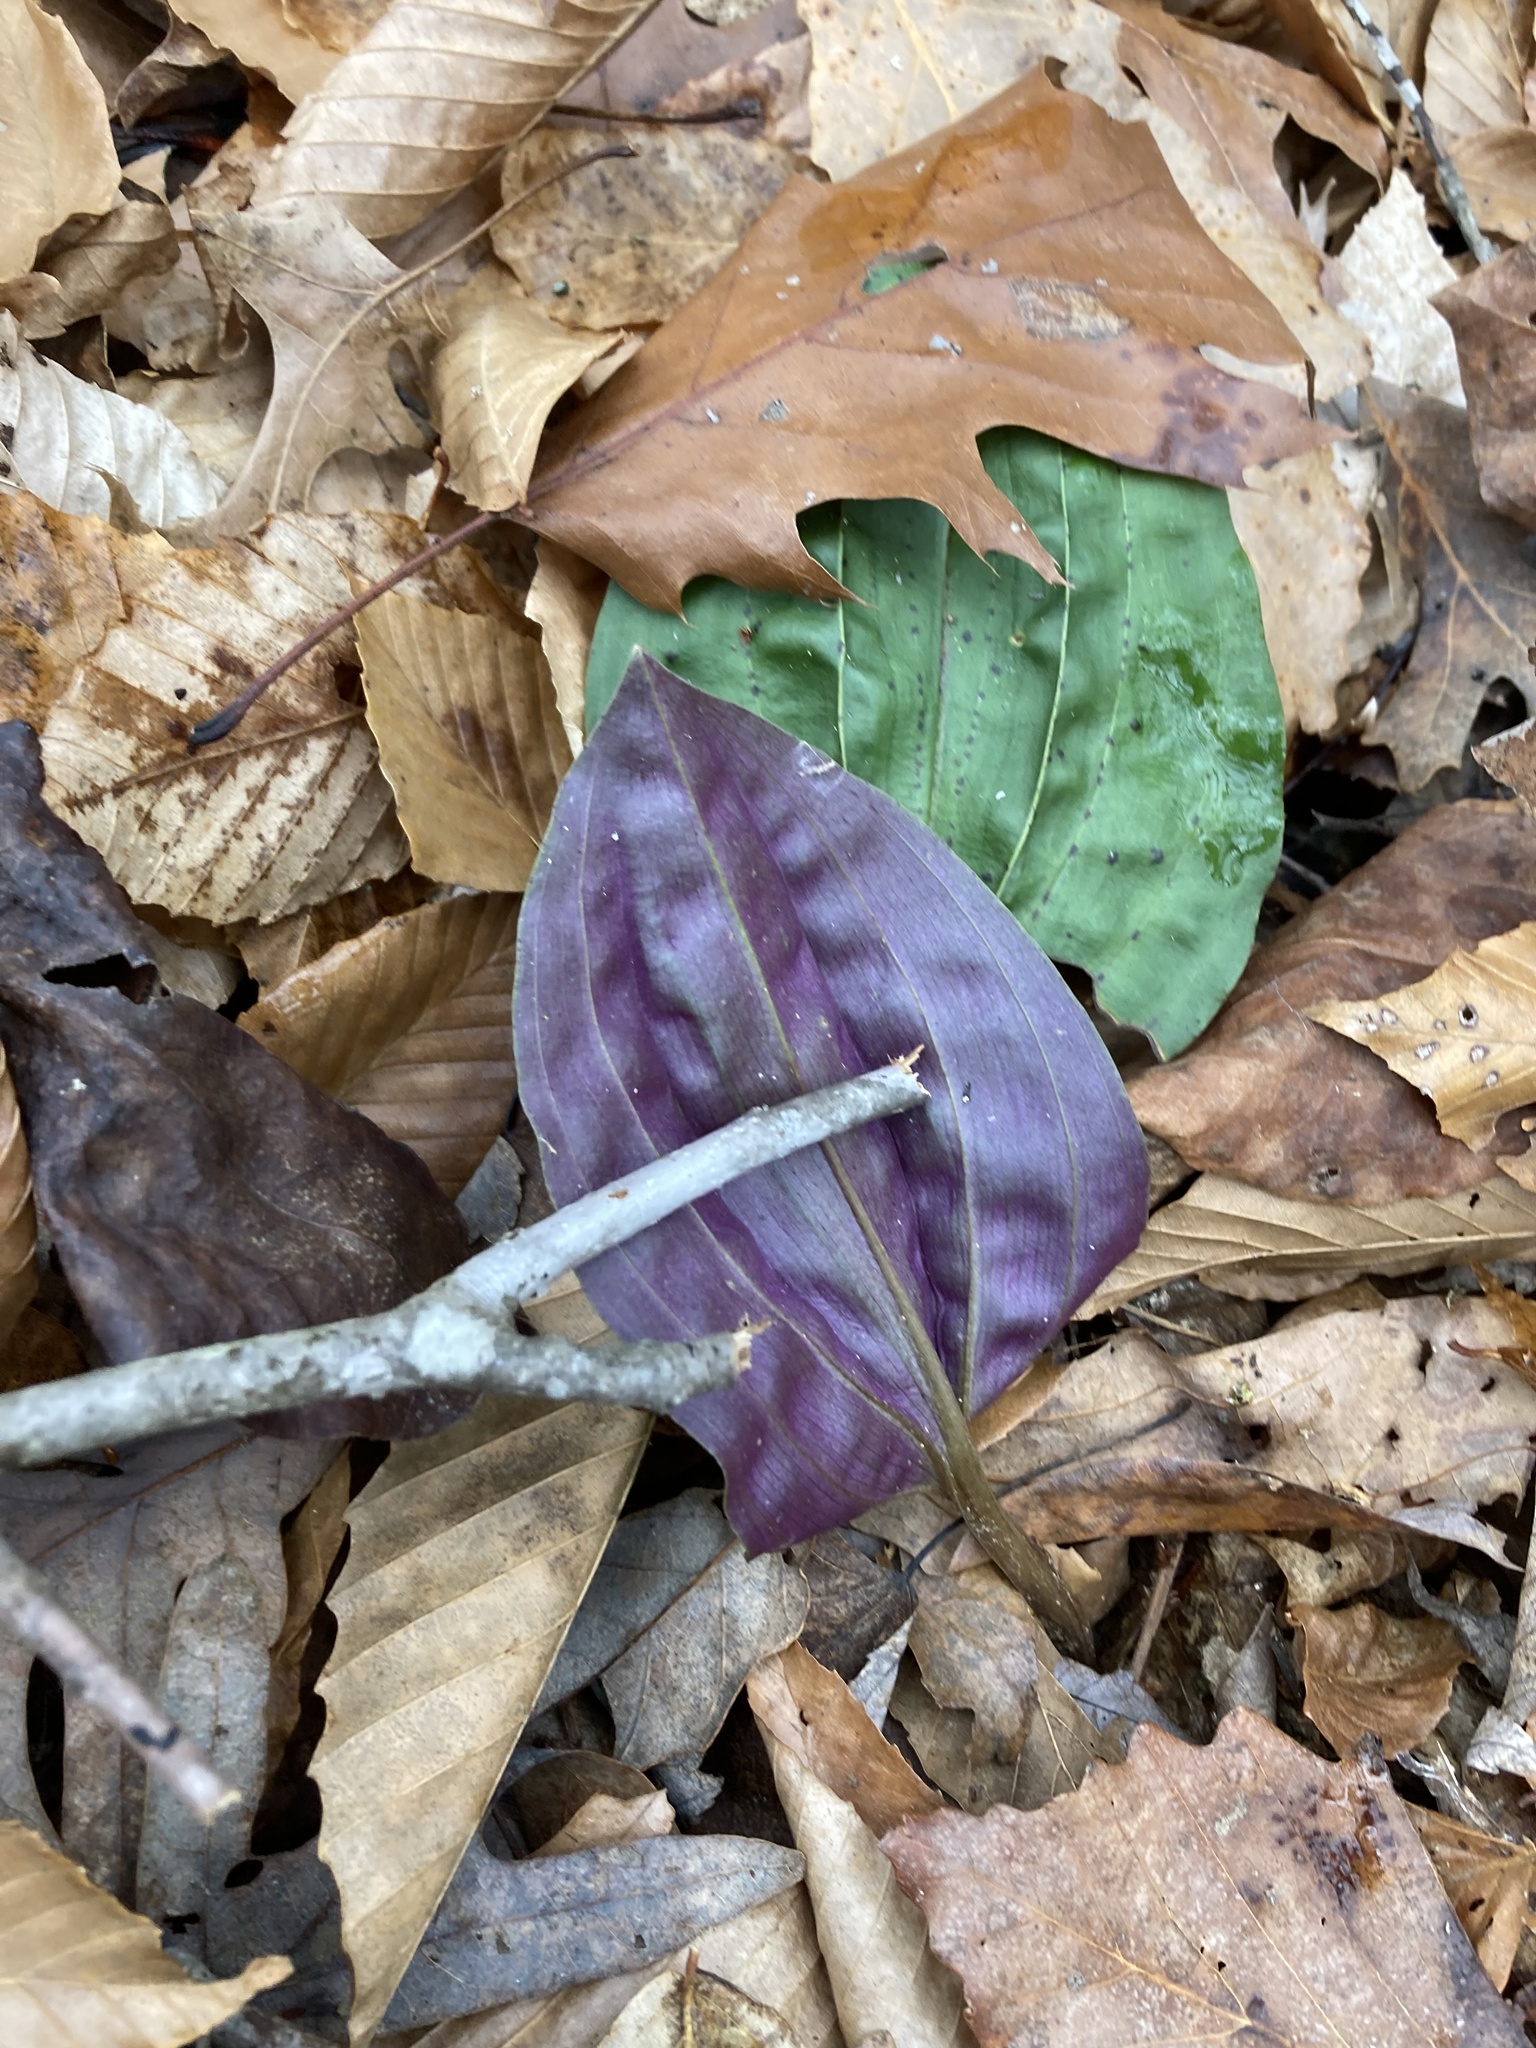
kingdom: Plantae
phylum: Tracheophyta
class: Liliopsida
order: Asparagales
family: Orchidaceae
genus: Tipularia
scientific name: Tipularia discolor
